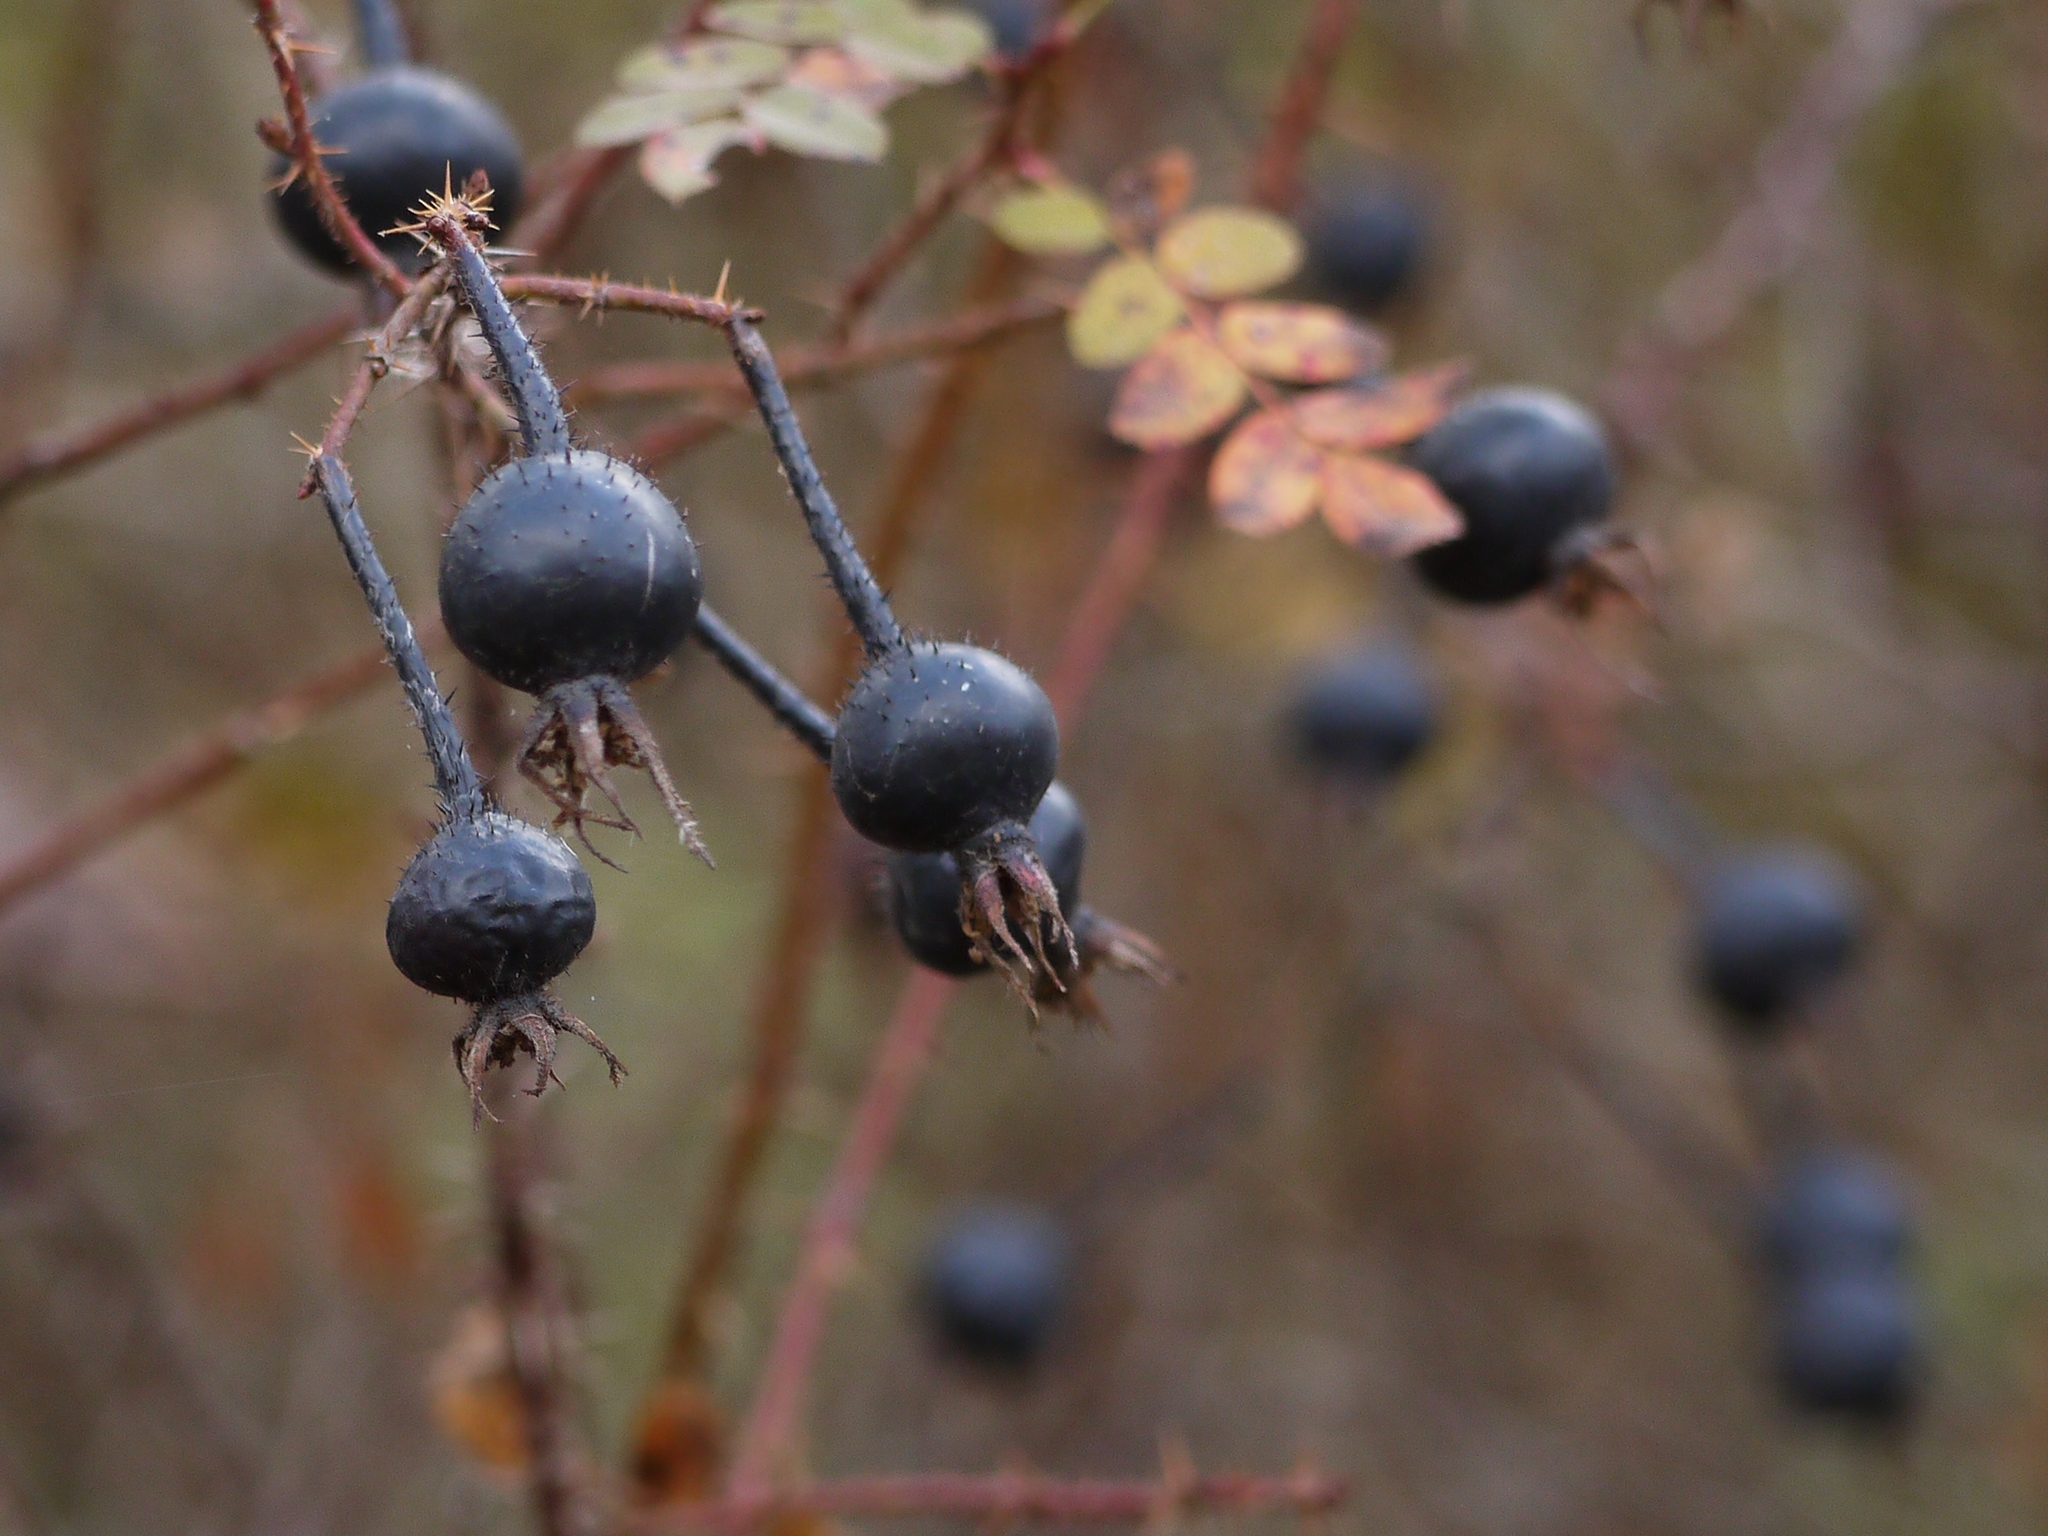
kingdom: Plantae
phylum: Tracheophyta
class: Magnoliopsida
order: Rosales
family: Rosaceae
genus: Rosa
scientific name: Rosa spinosissima
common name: Burnet rose
